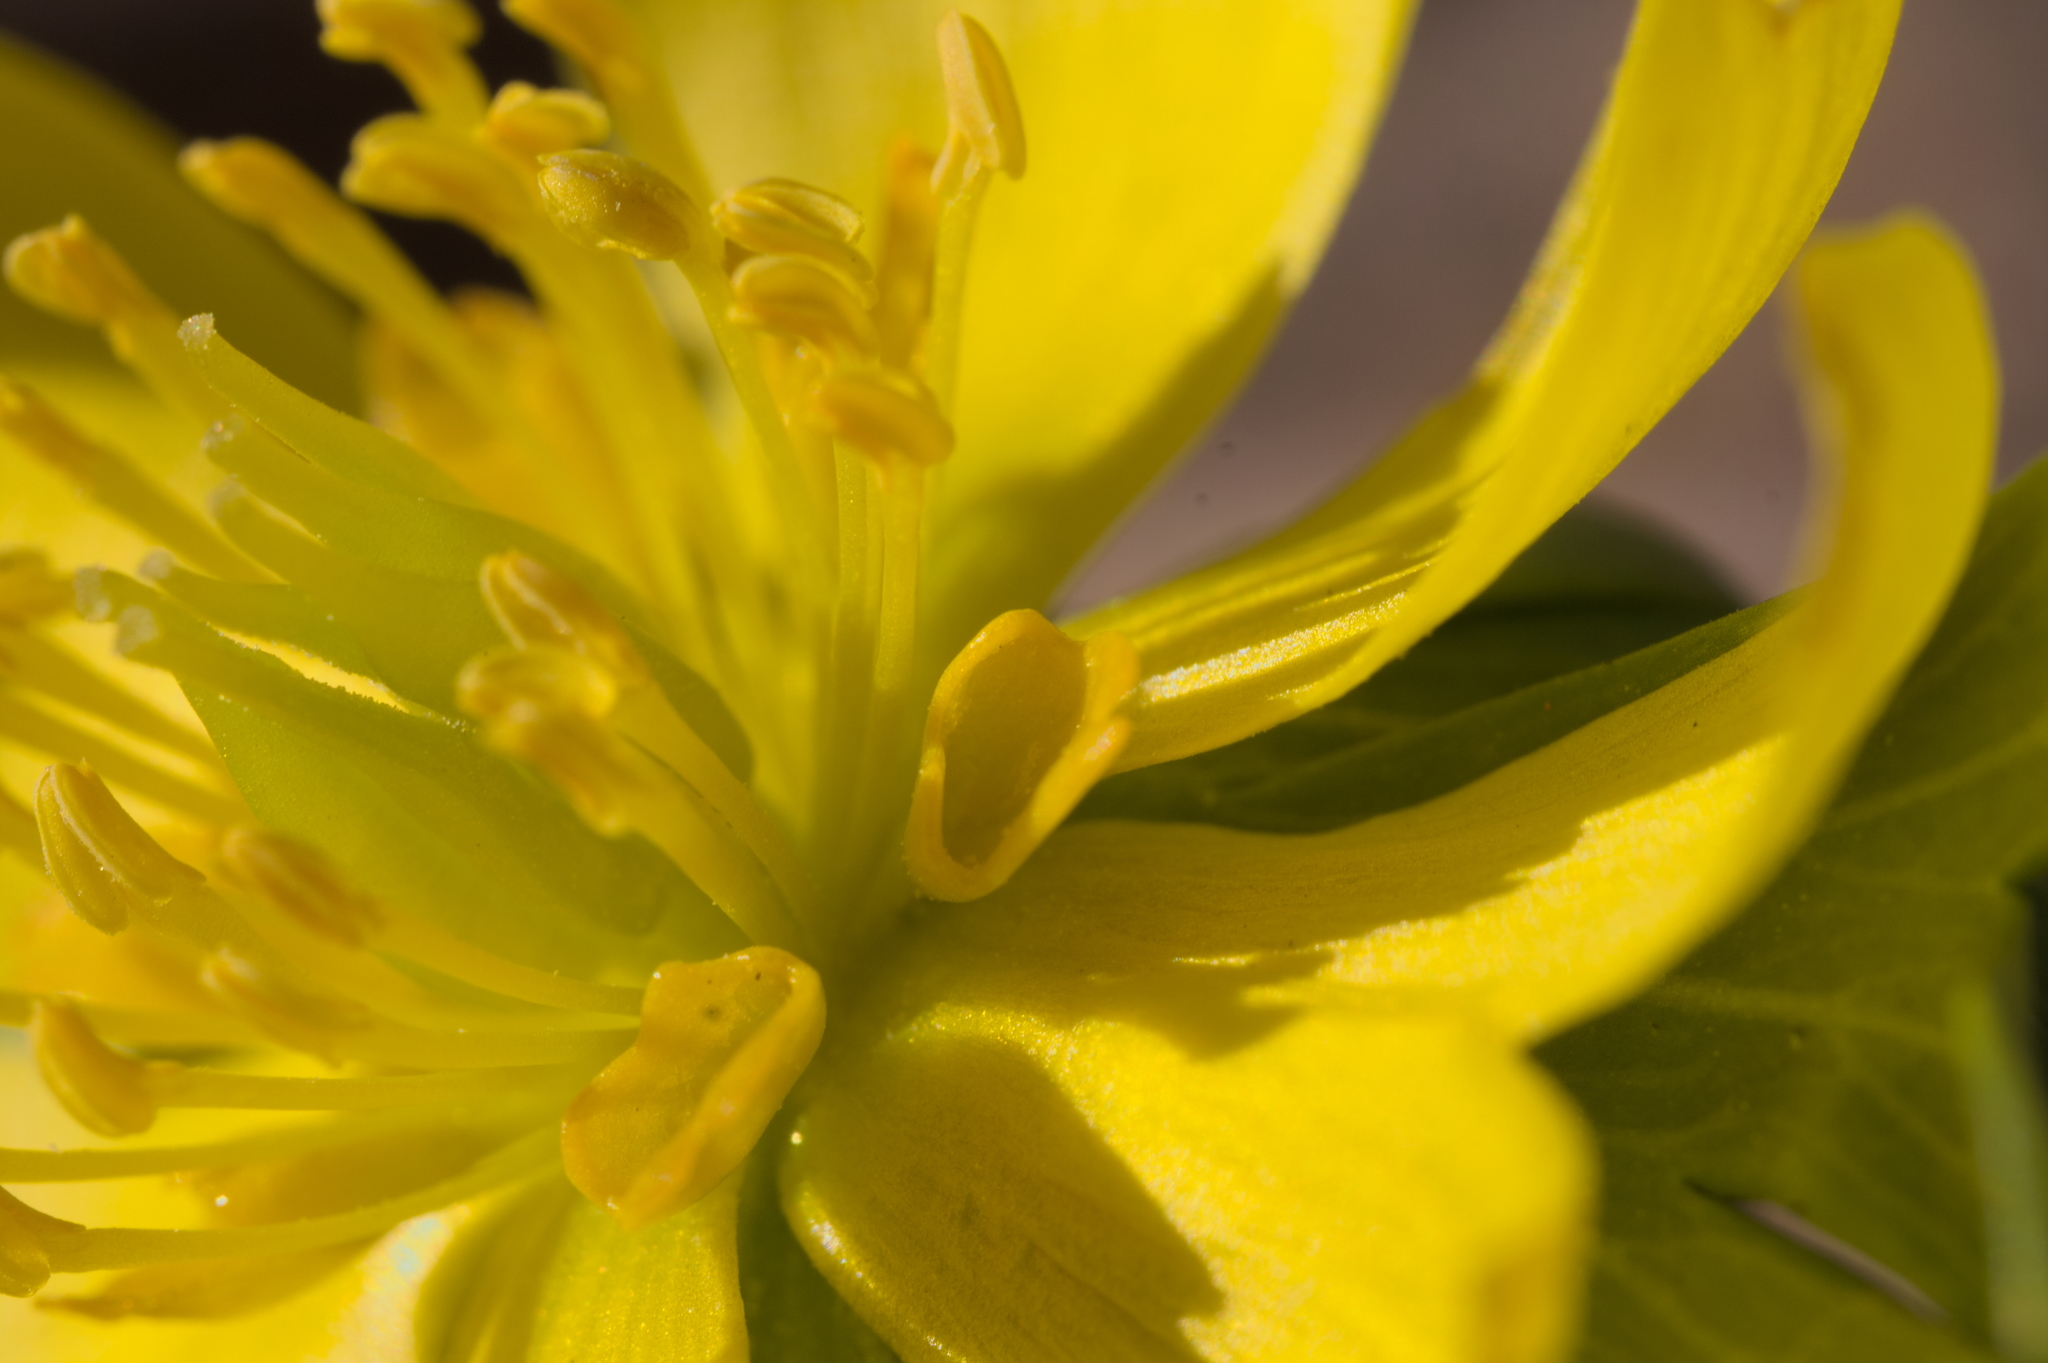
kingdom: Plantae
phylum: Tracheophyta
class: Magnoliopsida
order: Ranunculales
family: Ranunculaceae
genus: Eranthis
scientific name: Eranthis hyemalis
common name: Winter aconite
